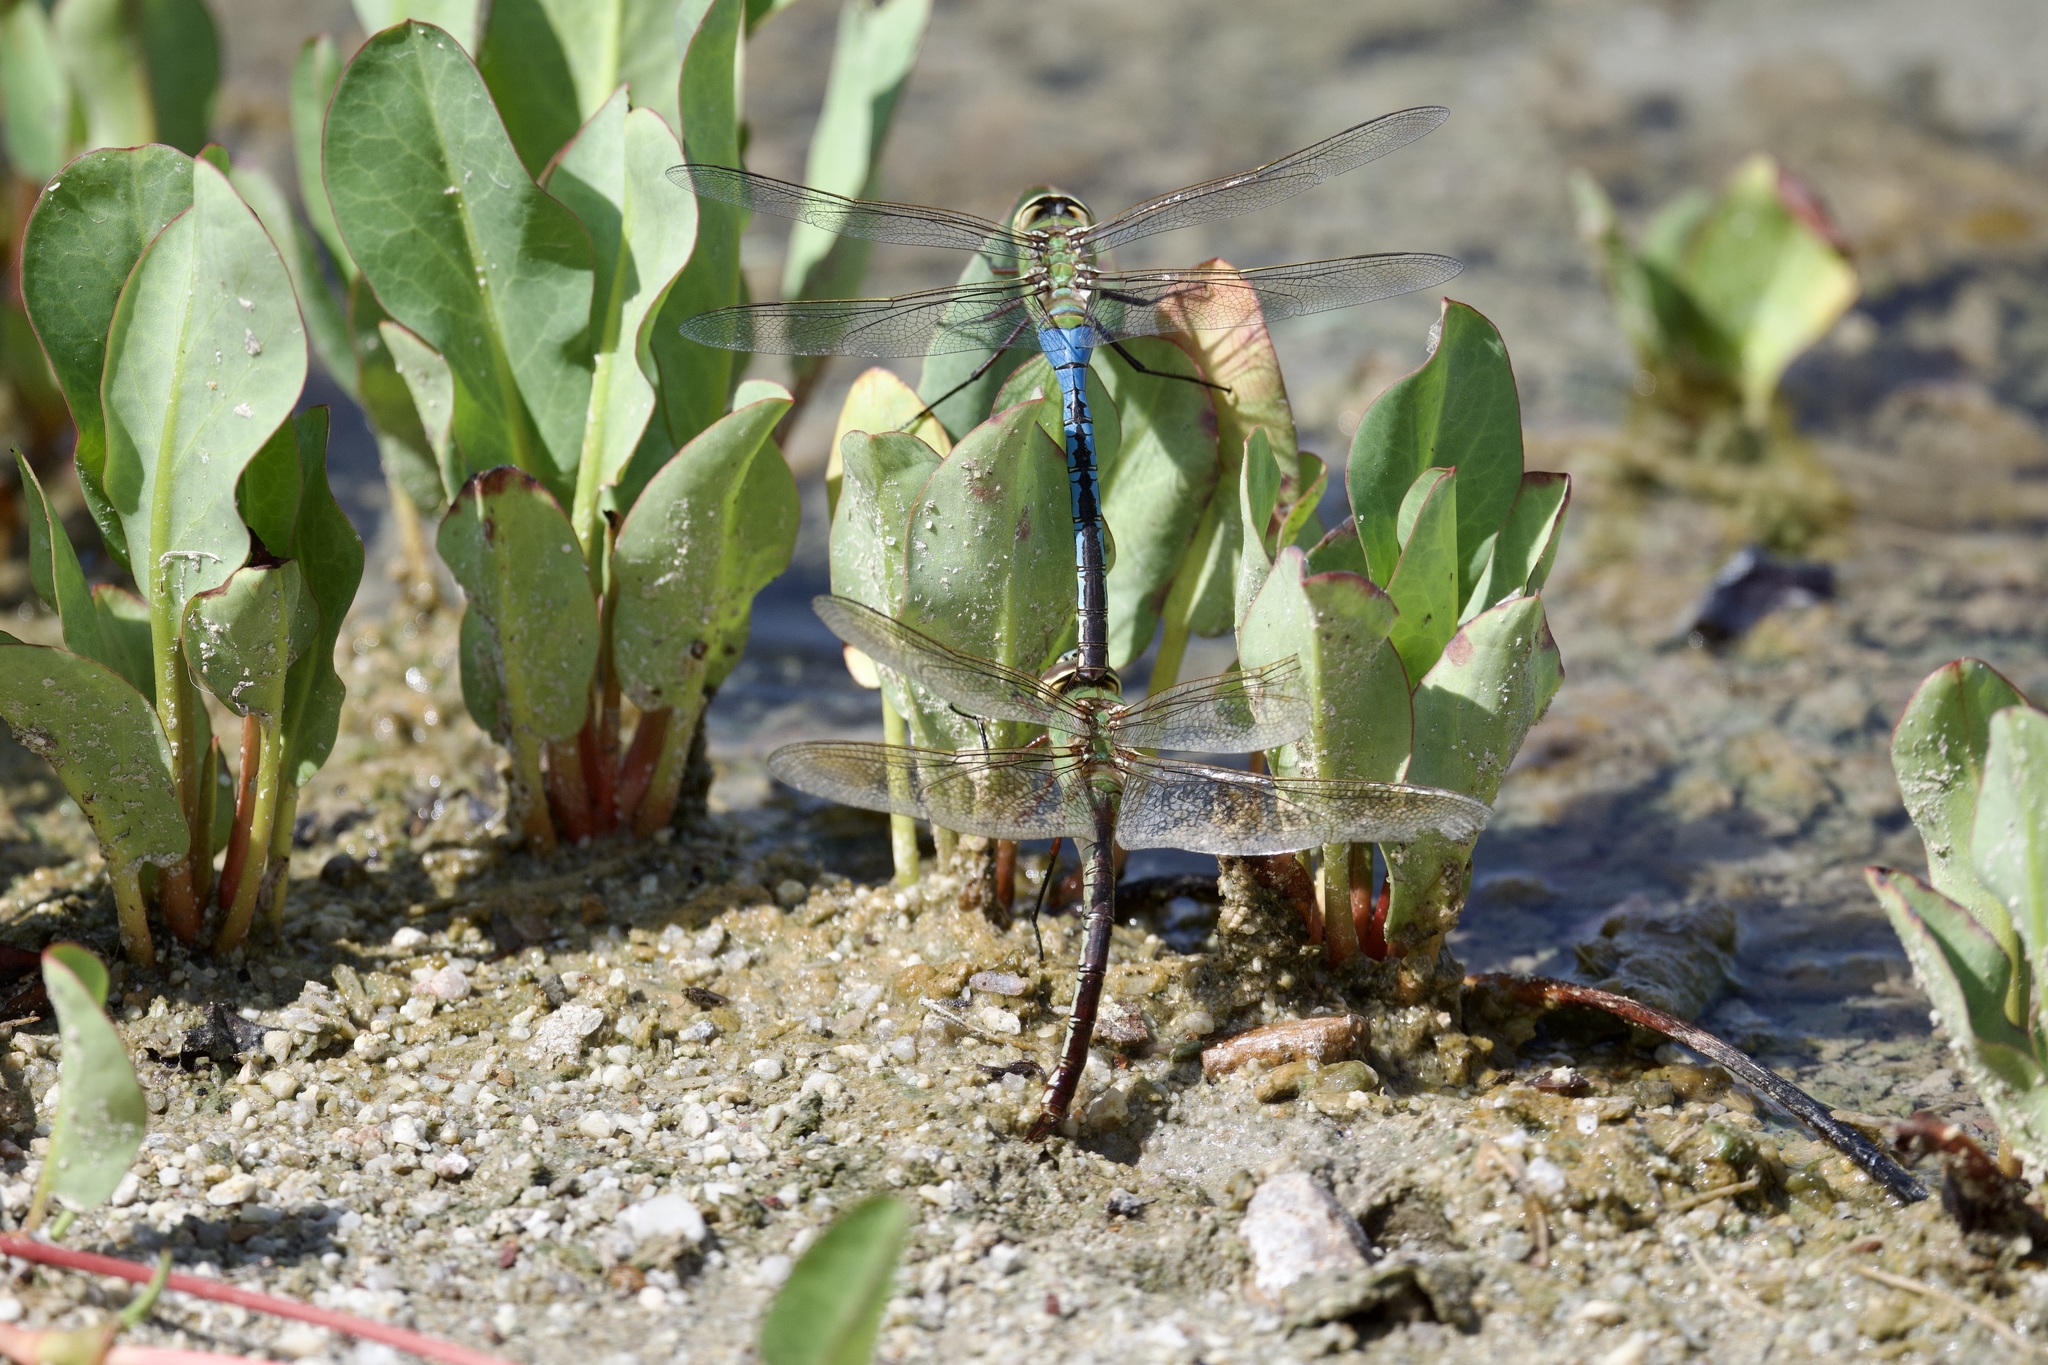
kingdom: Animalia
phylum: Arthropoda
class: Insecta
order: Odonata
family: Aeshnidae
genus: Anax
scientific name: Anax junius
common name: Common green darner
